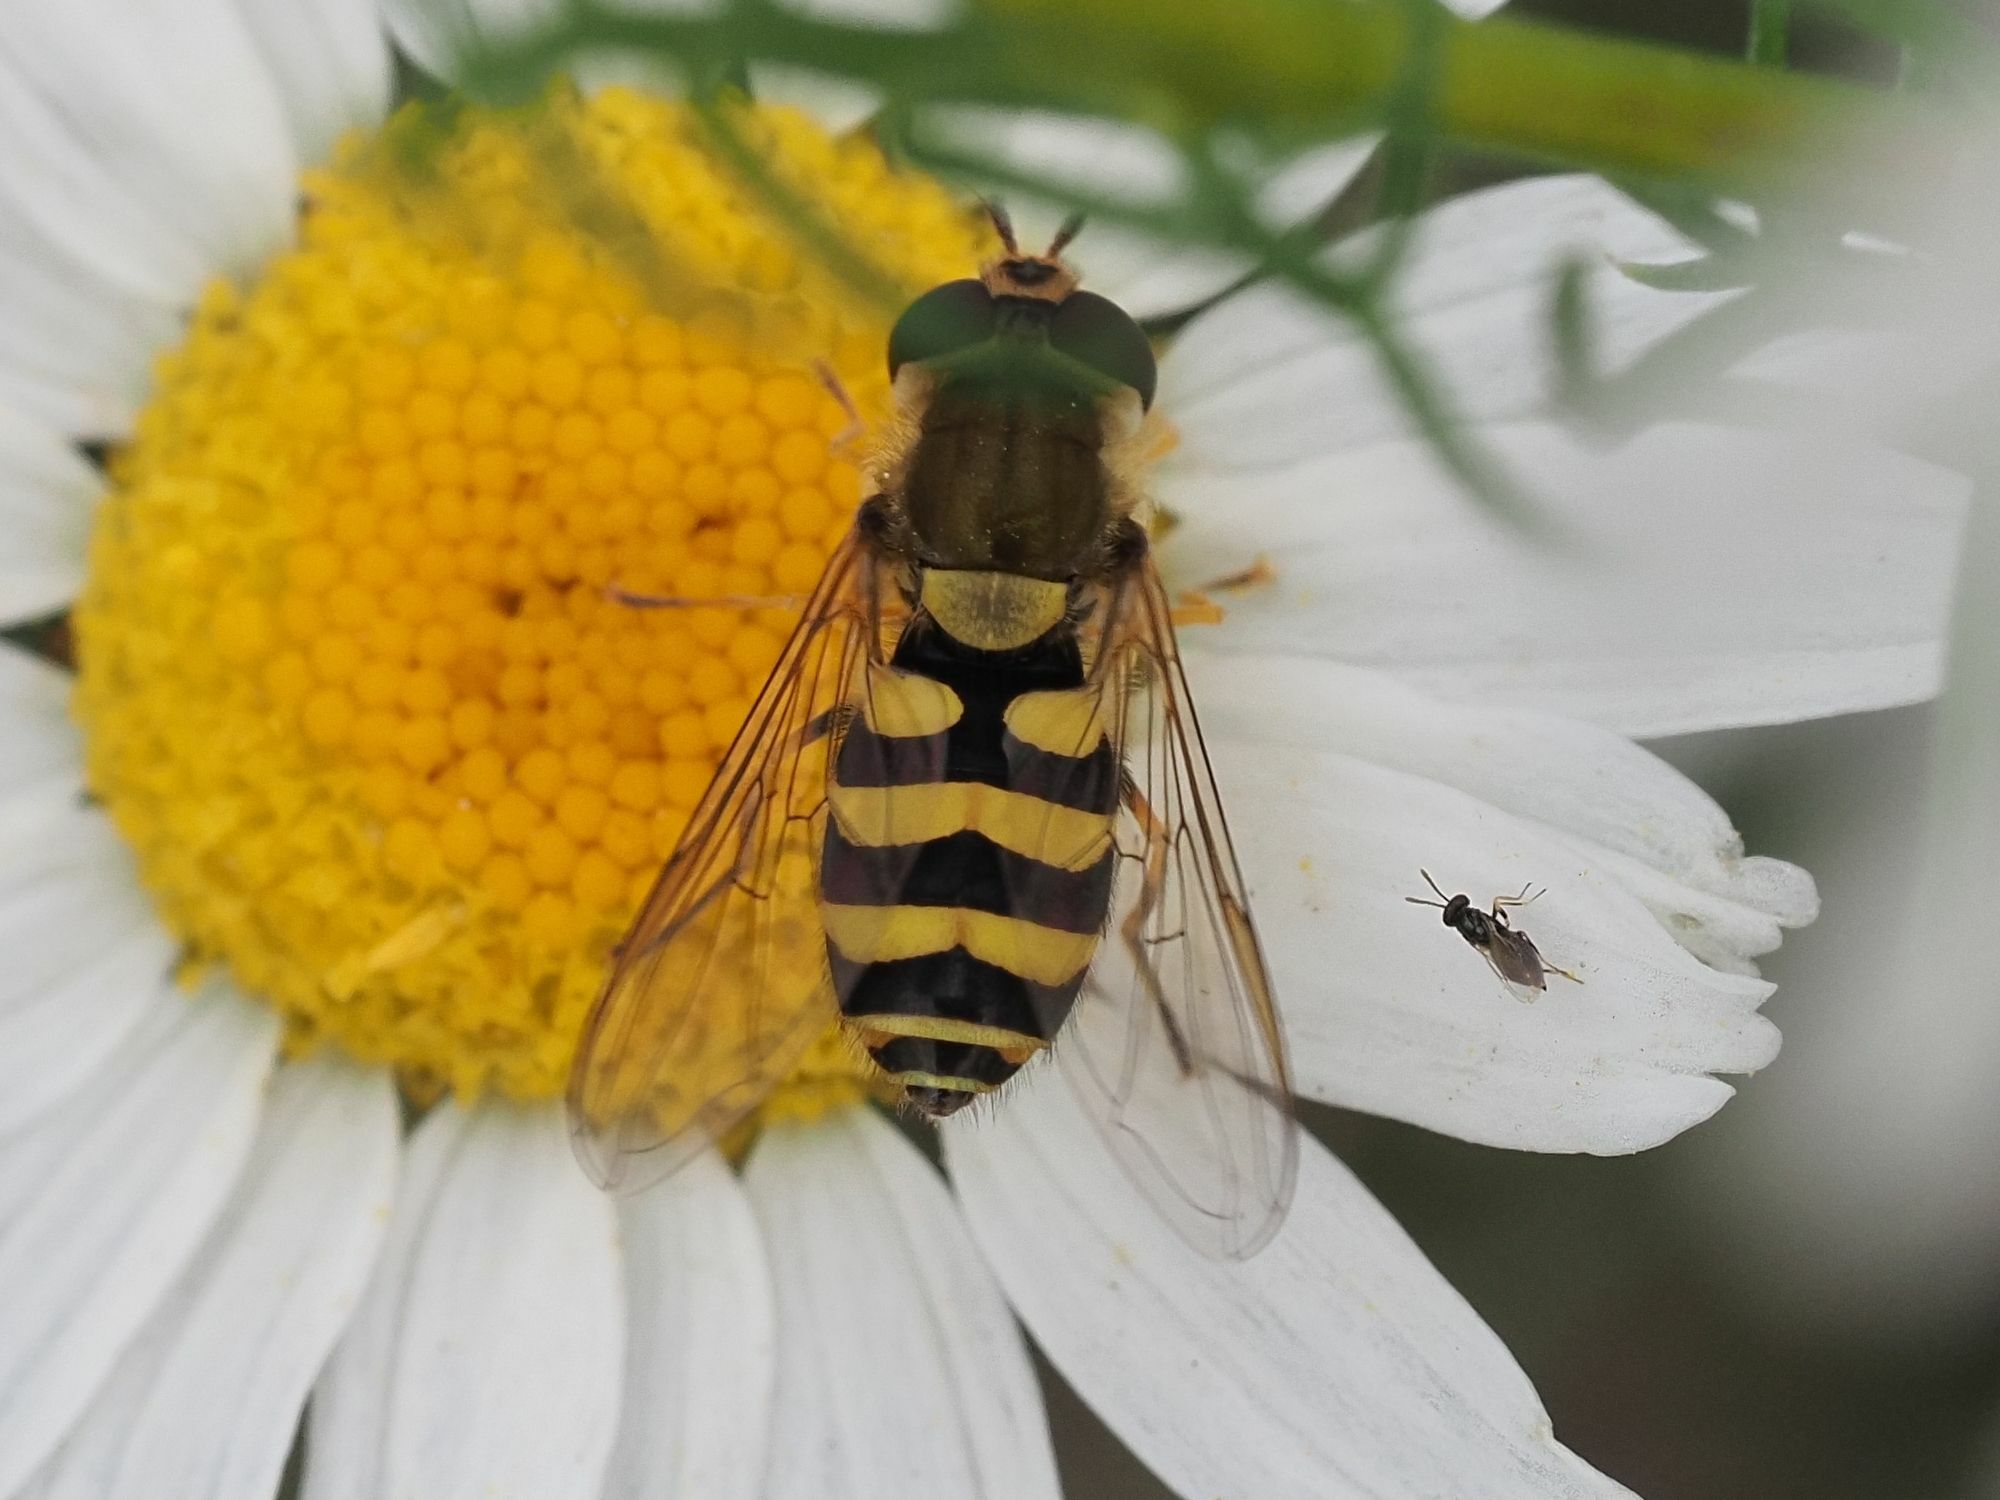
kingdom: Animalia
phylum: Arthropoda
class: Insecta
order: Diptera
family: Syrphidae
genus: Syrphus
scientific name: Syrphus
